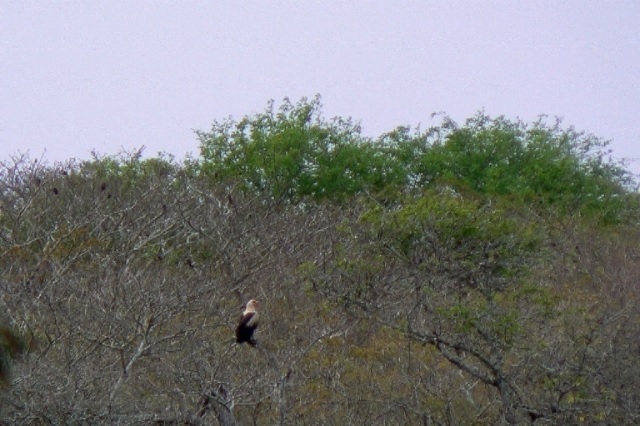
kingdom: Animalia
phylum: Chordata
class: Aves
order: Accipitriformes
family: Accipitridae
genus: Gypohierax
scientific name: Gypohierax angolensis
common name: Palm-nut vulture
